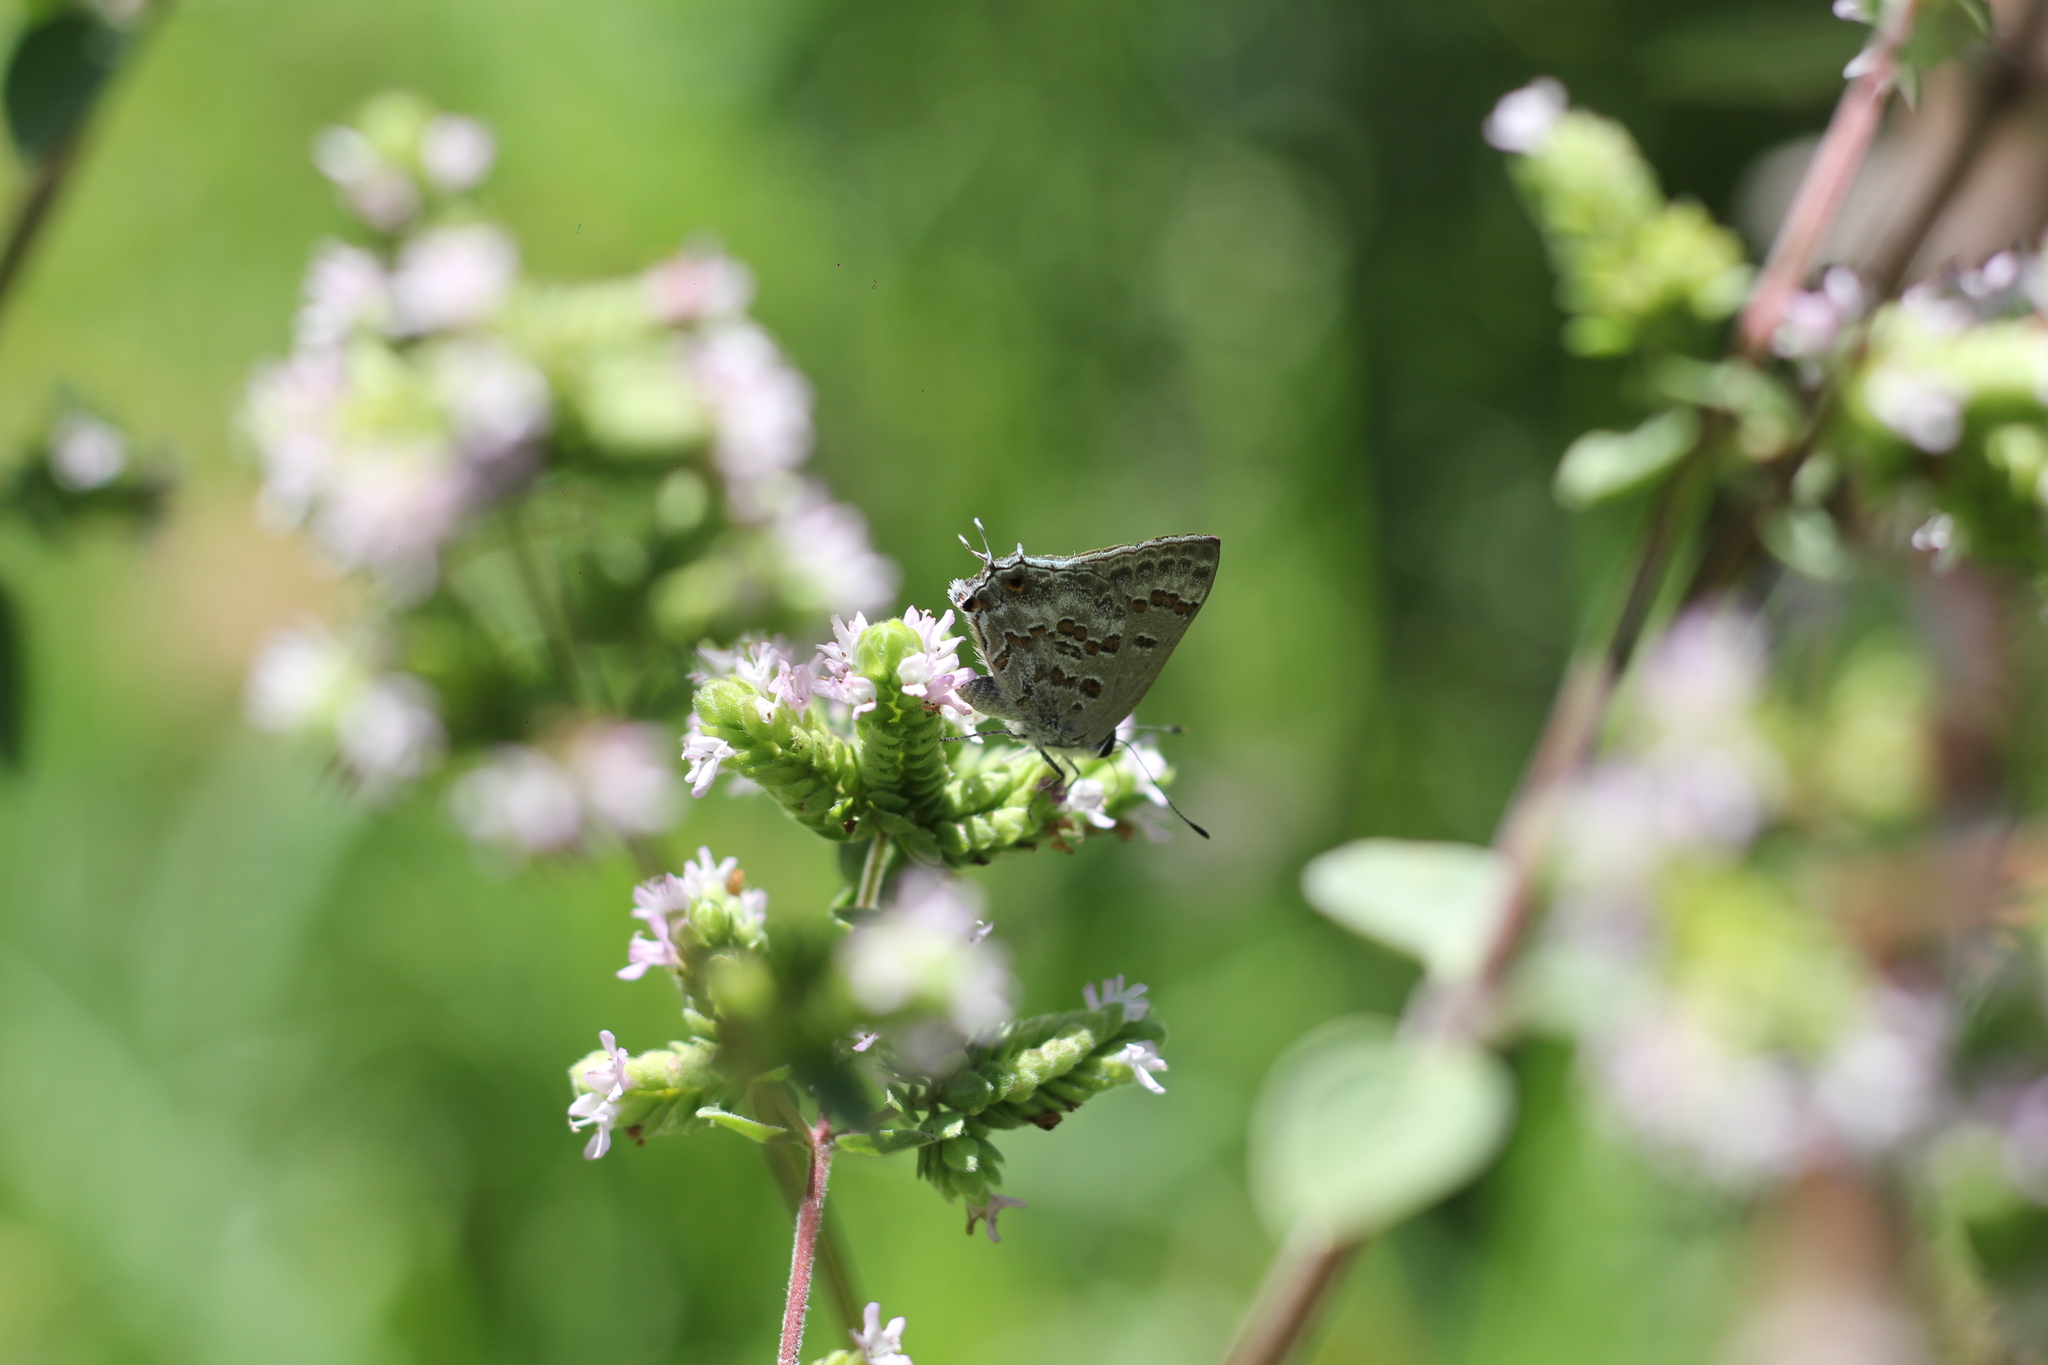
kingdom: Animalia
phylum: Arthropoda
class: Insecta
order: Lepidoptera
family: Lycaenidae
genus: Strymon
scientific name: Strymon lucena
